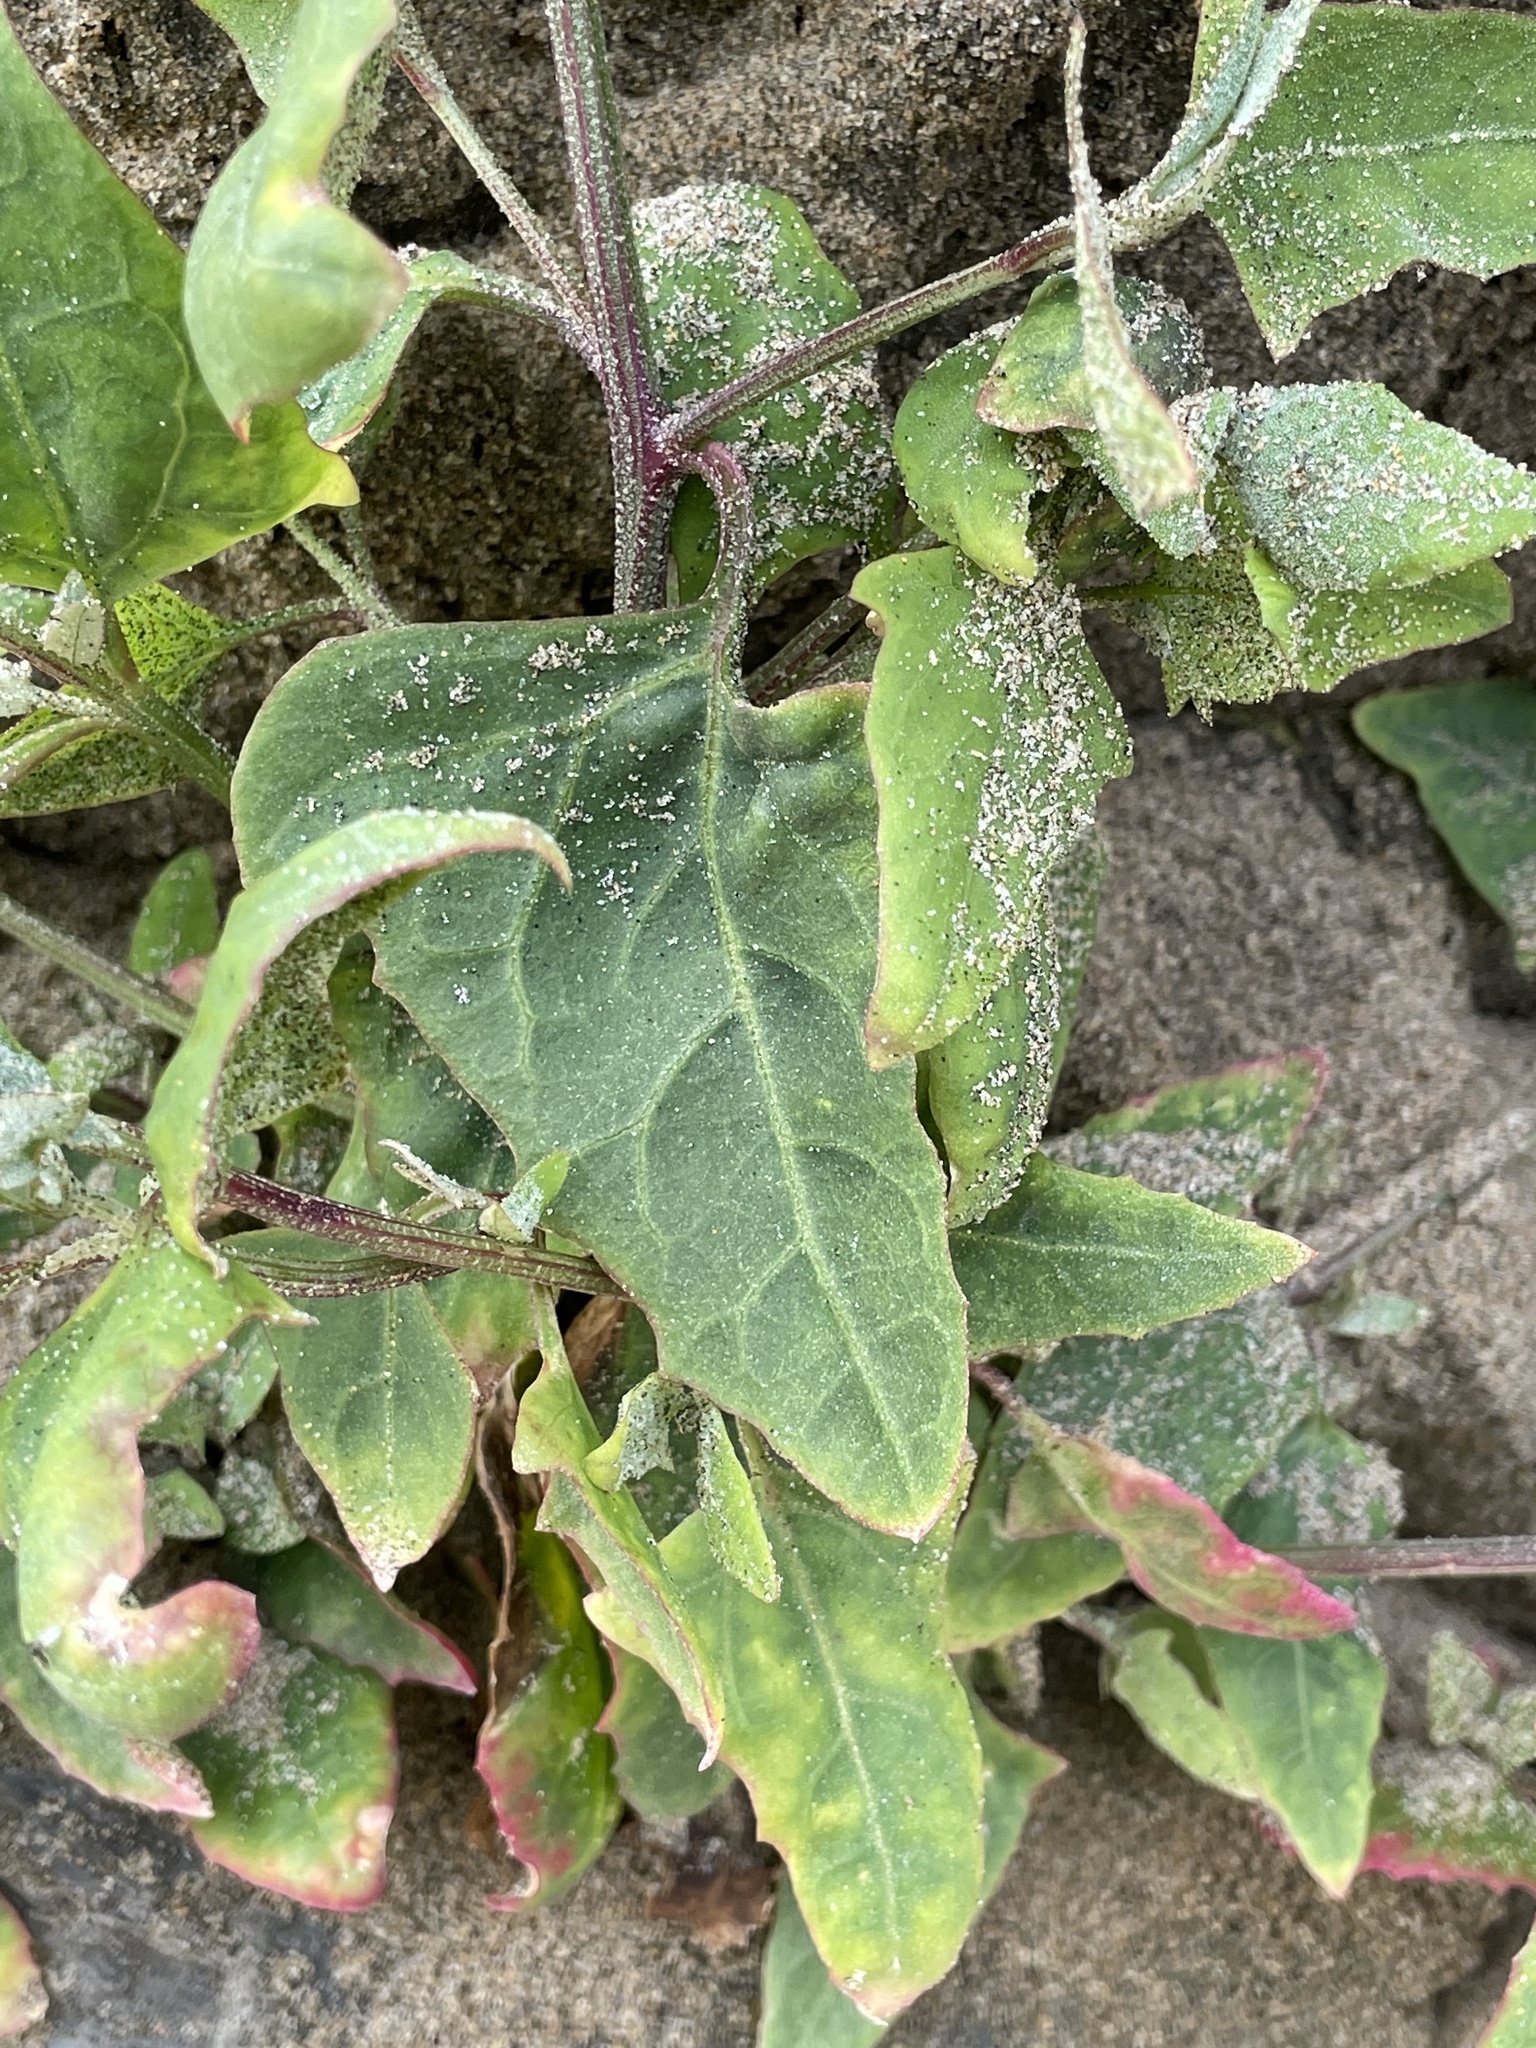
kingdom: Plantae
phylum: Tracheophyta
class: Magnoliopsida
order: Caryophyllales
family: Amaranthaceae
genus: Atriplex
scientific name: Atriplex prostrata
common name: Spear-leaved orache
